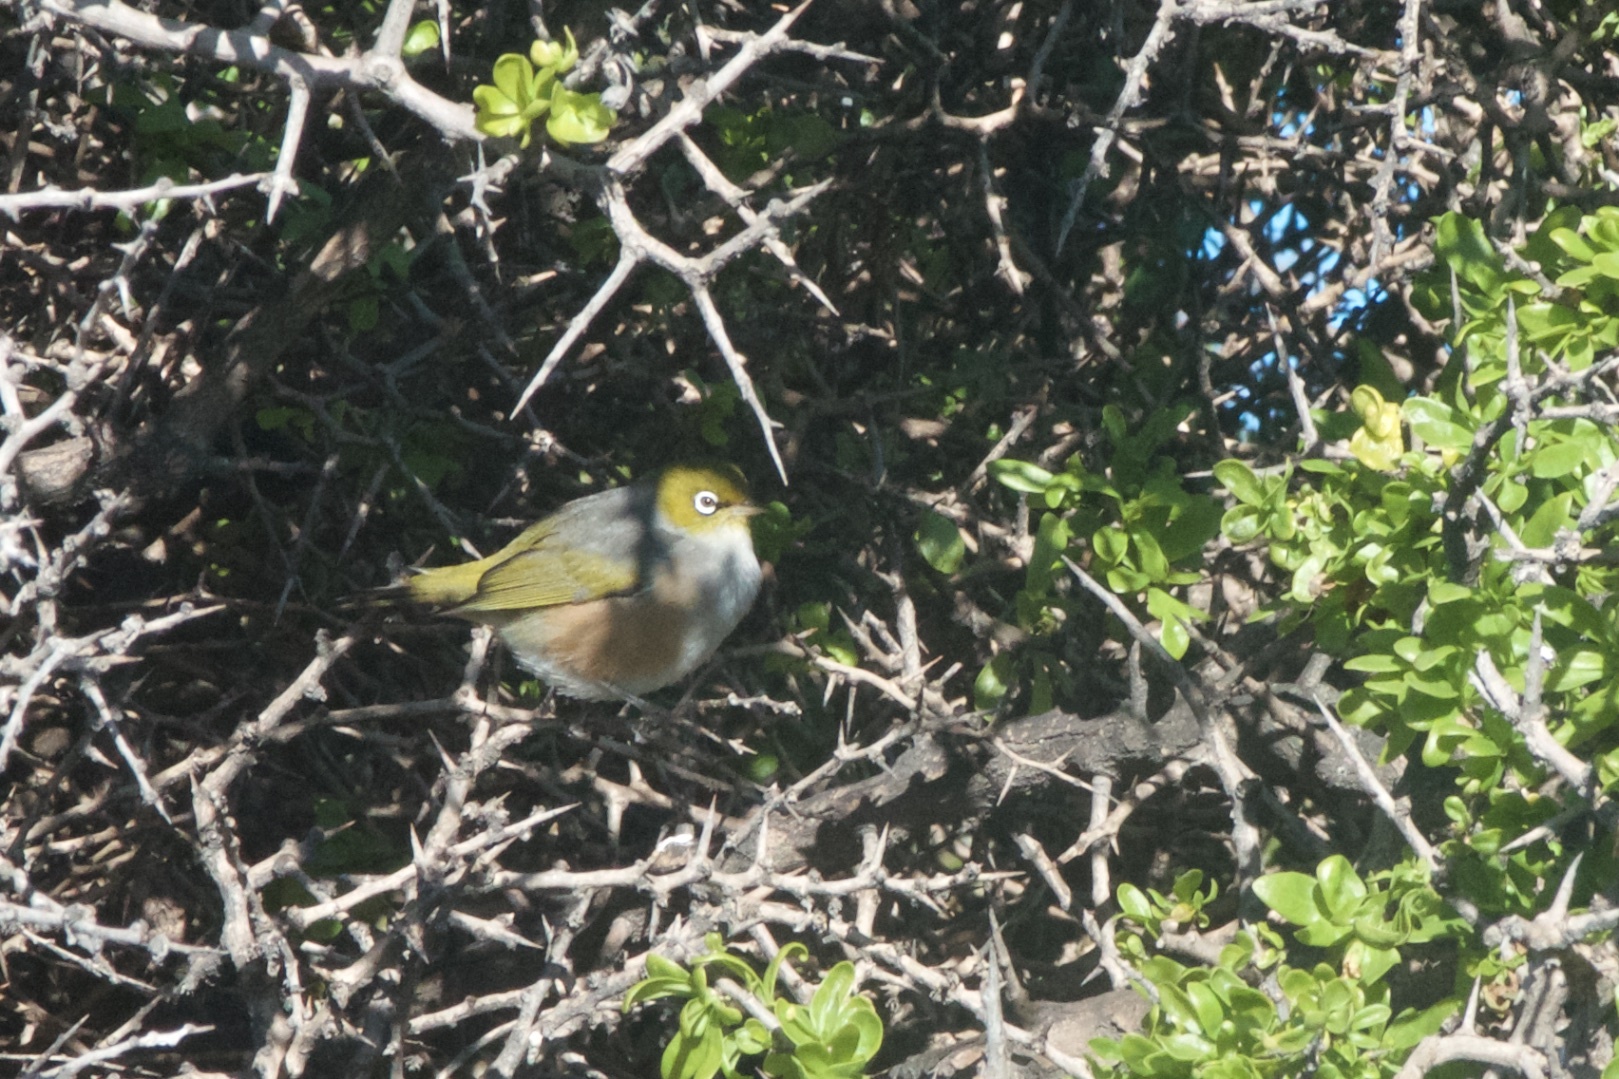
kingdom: Animalia
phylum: Chordata
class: Aves
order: Passeriformes
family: Zosteropidae
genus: Zosterops
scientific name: Zosterops lateralis
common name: Silvereye
